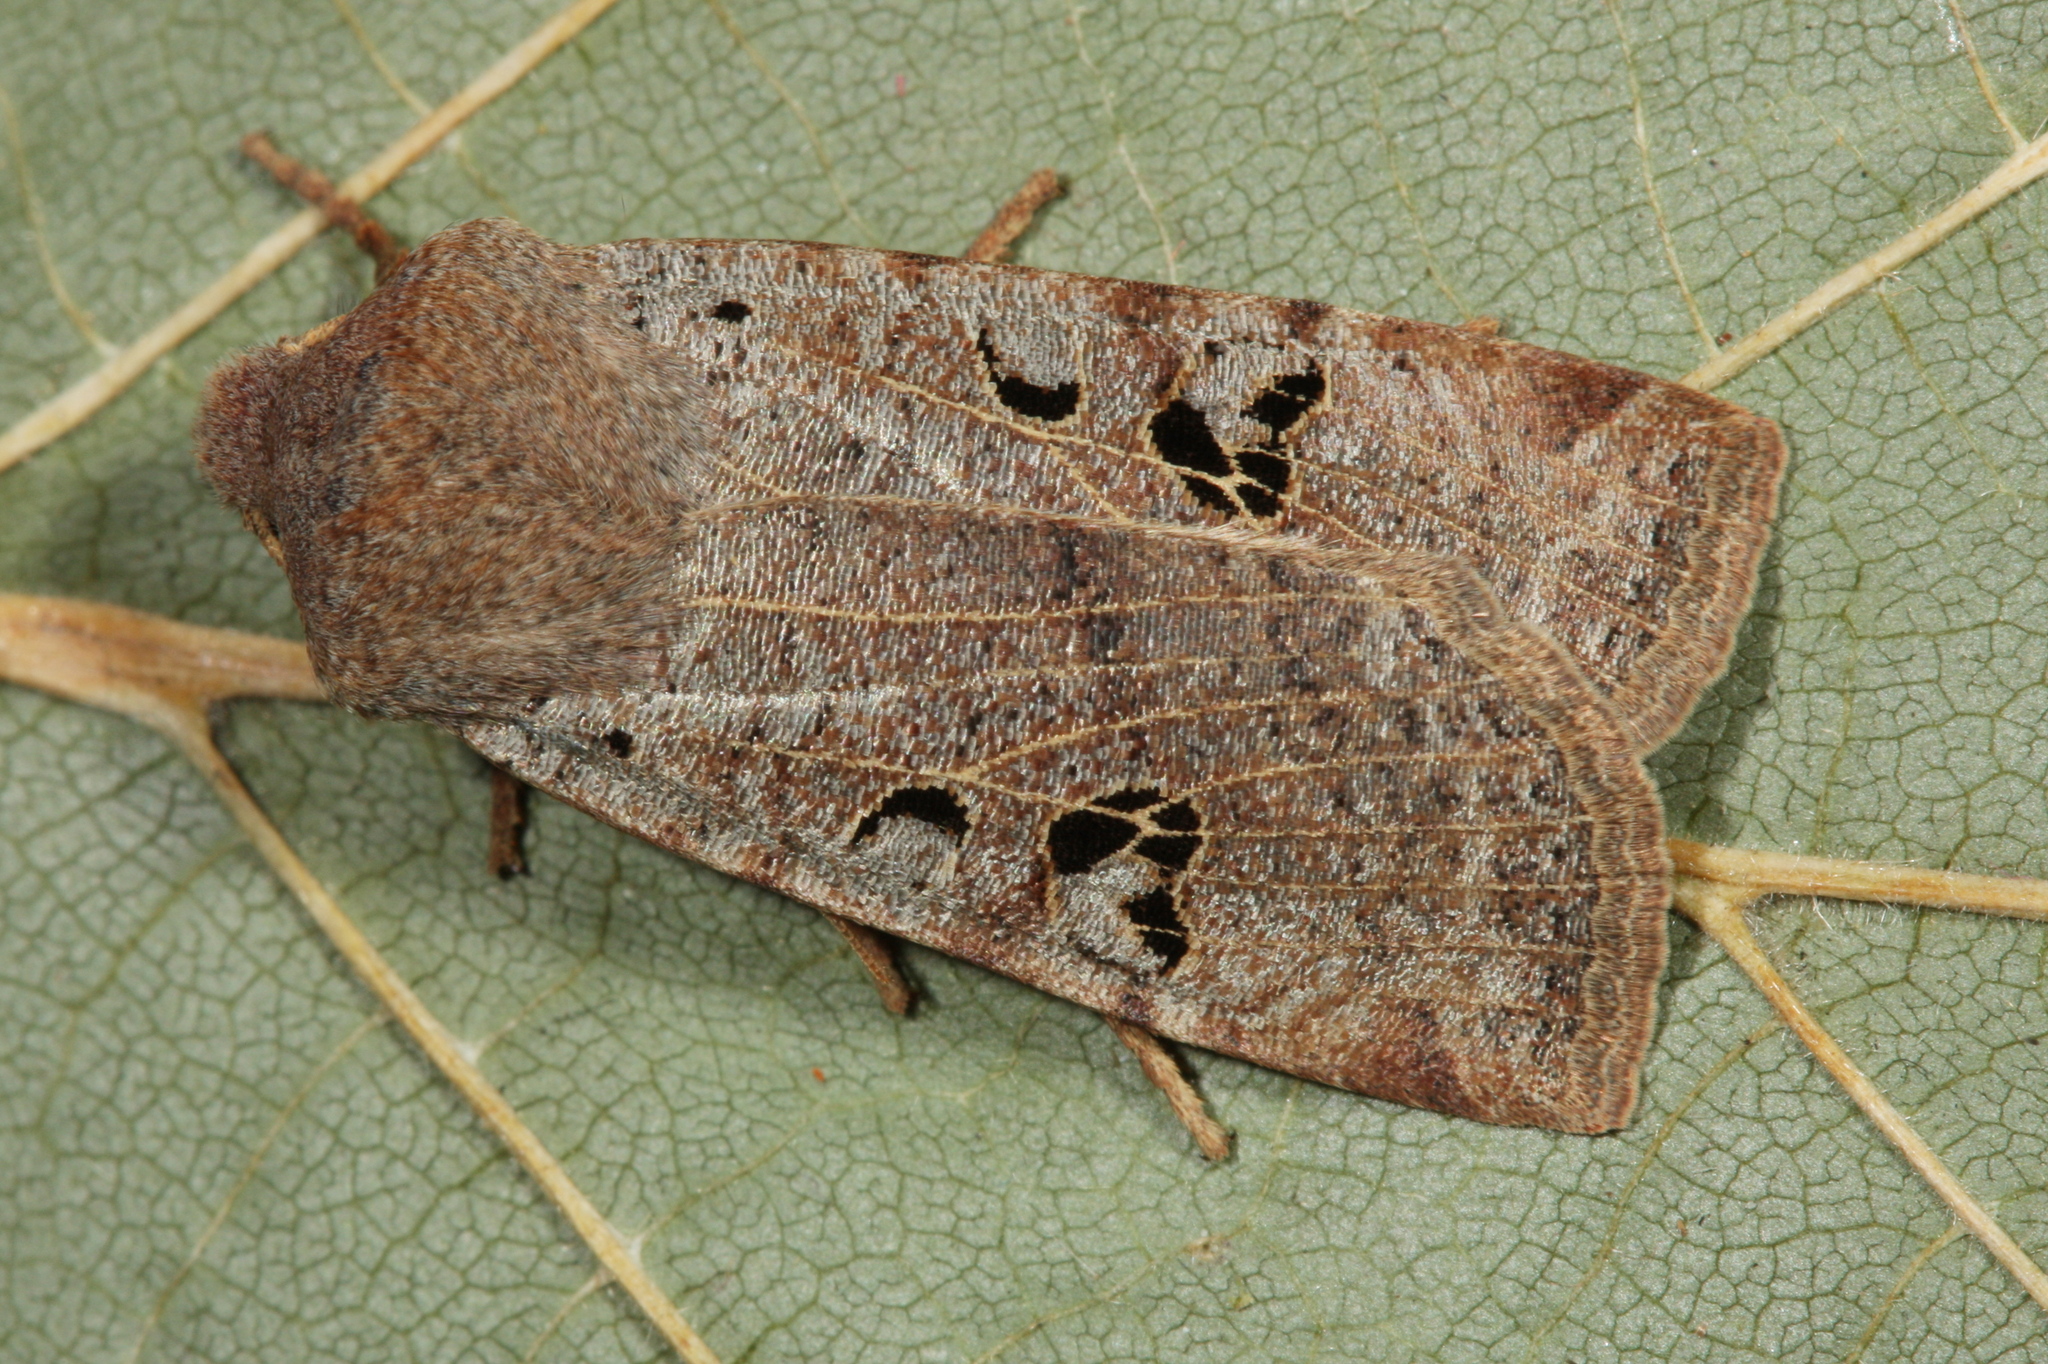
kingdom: Animalia
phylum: Arthropoda
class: Insecta
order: Lepidoptera
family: Noctuidae
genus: Conistra
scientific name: Conistra rubiginosa
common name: Black-spotted chestnut
